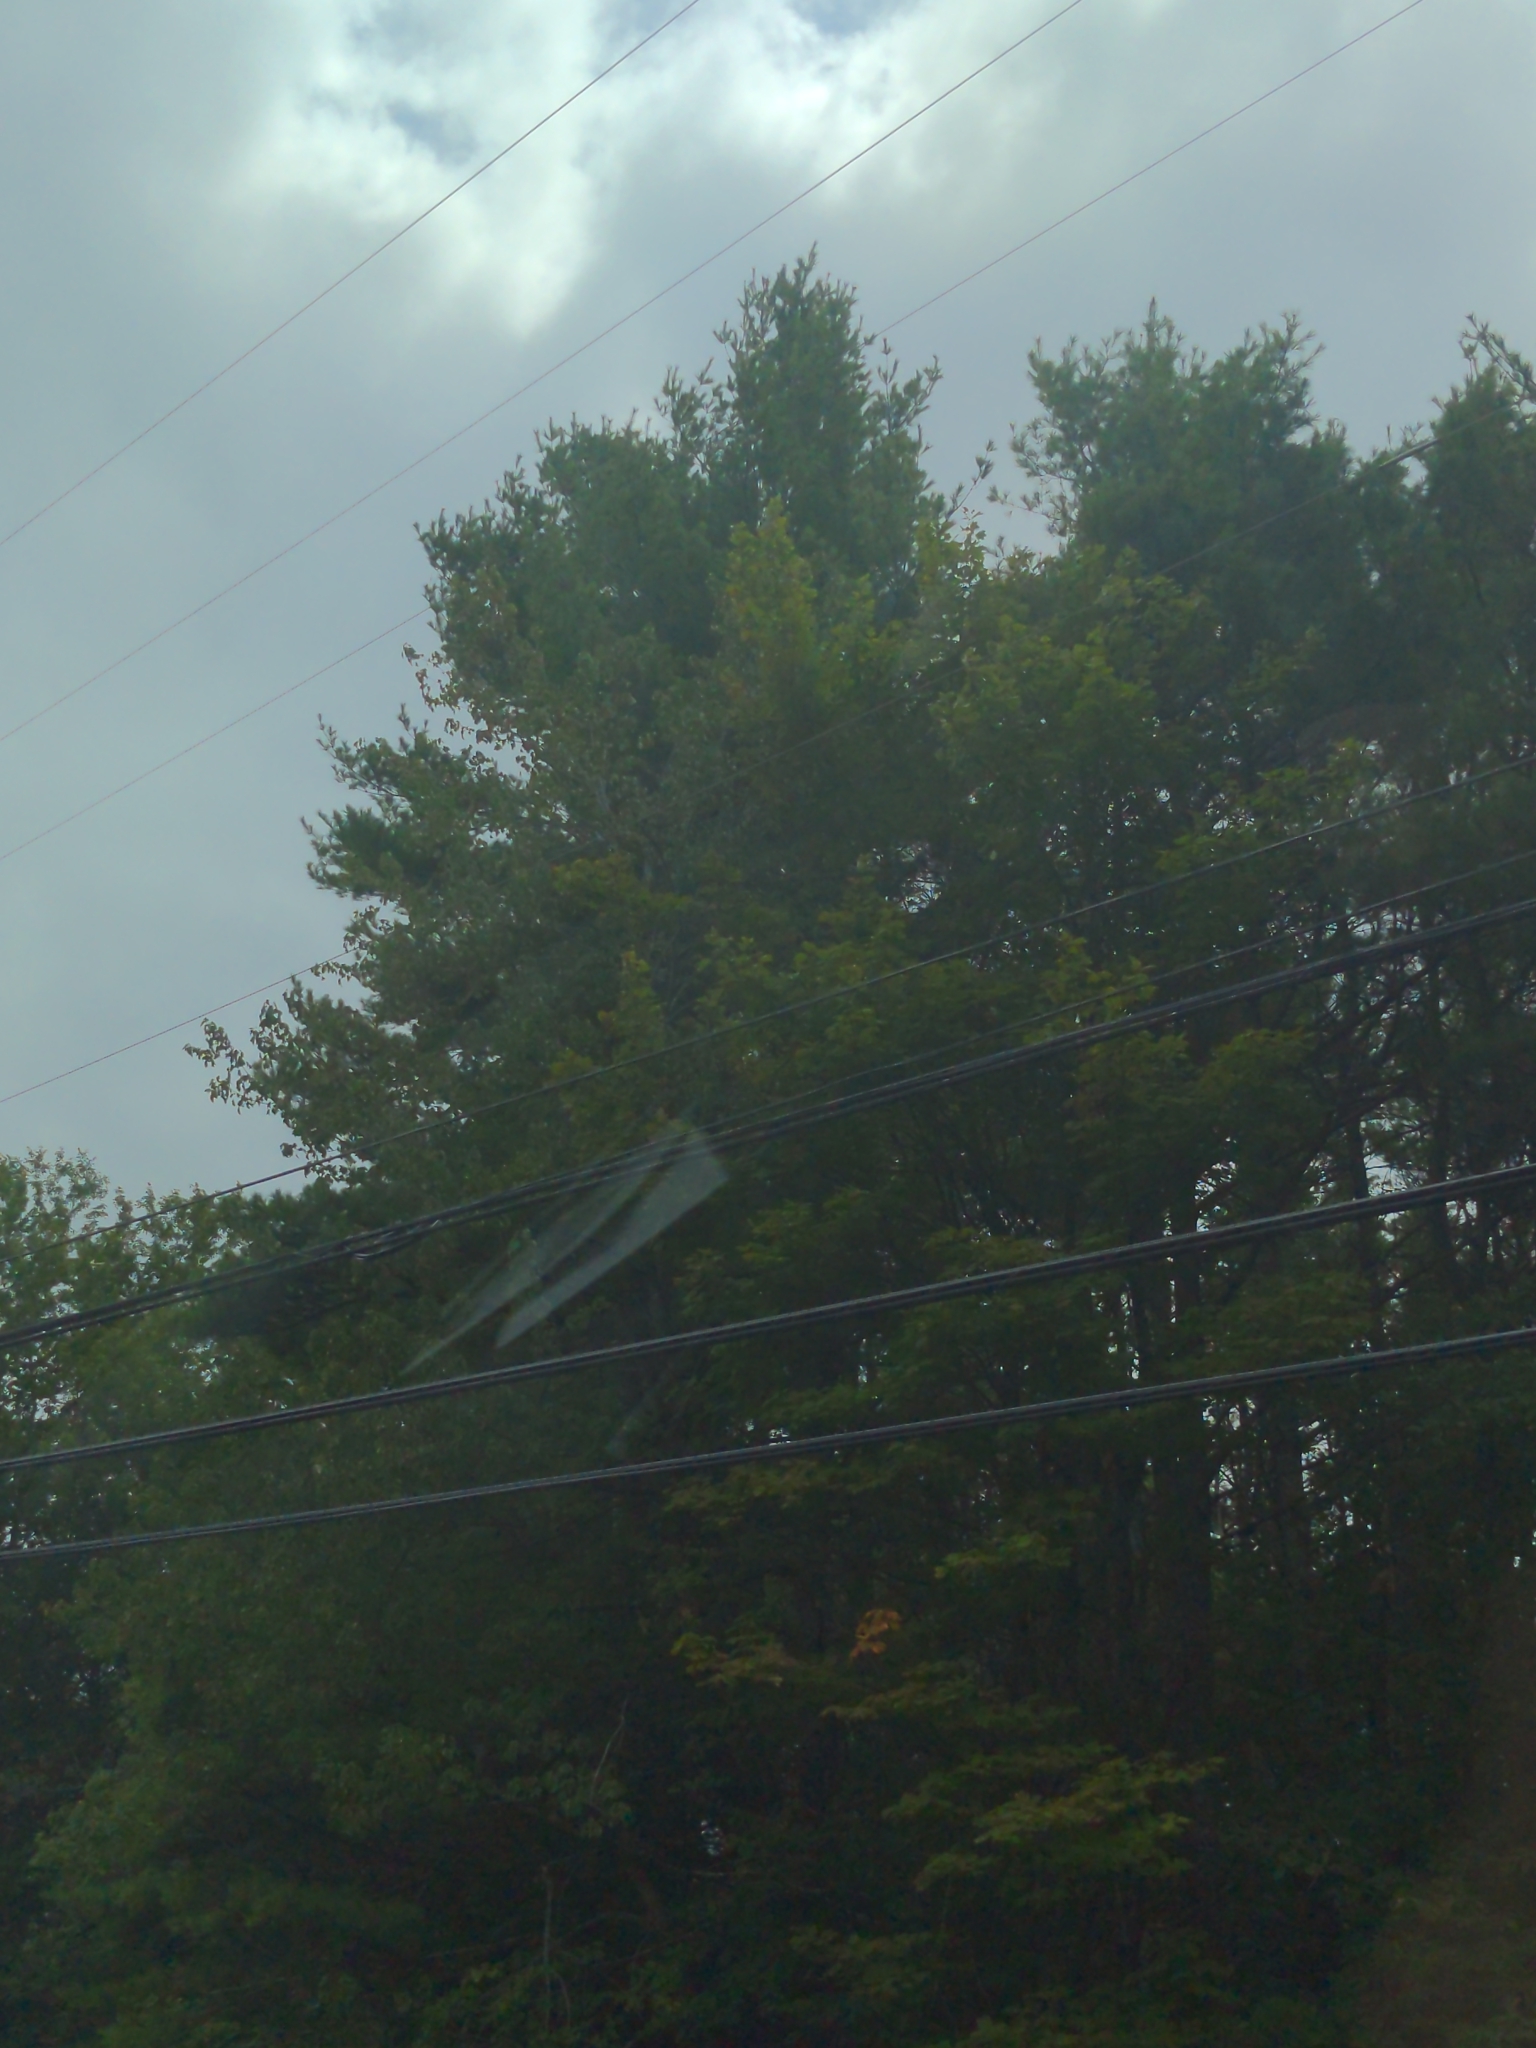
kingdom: Plantae
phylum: Tracheophyta
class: Pinopsida
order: Pinales
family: Pinaceae
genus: Pinus
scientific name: Pinus strobus
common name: Weymouth pine
